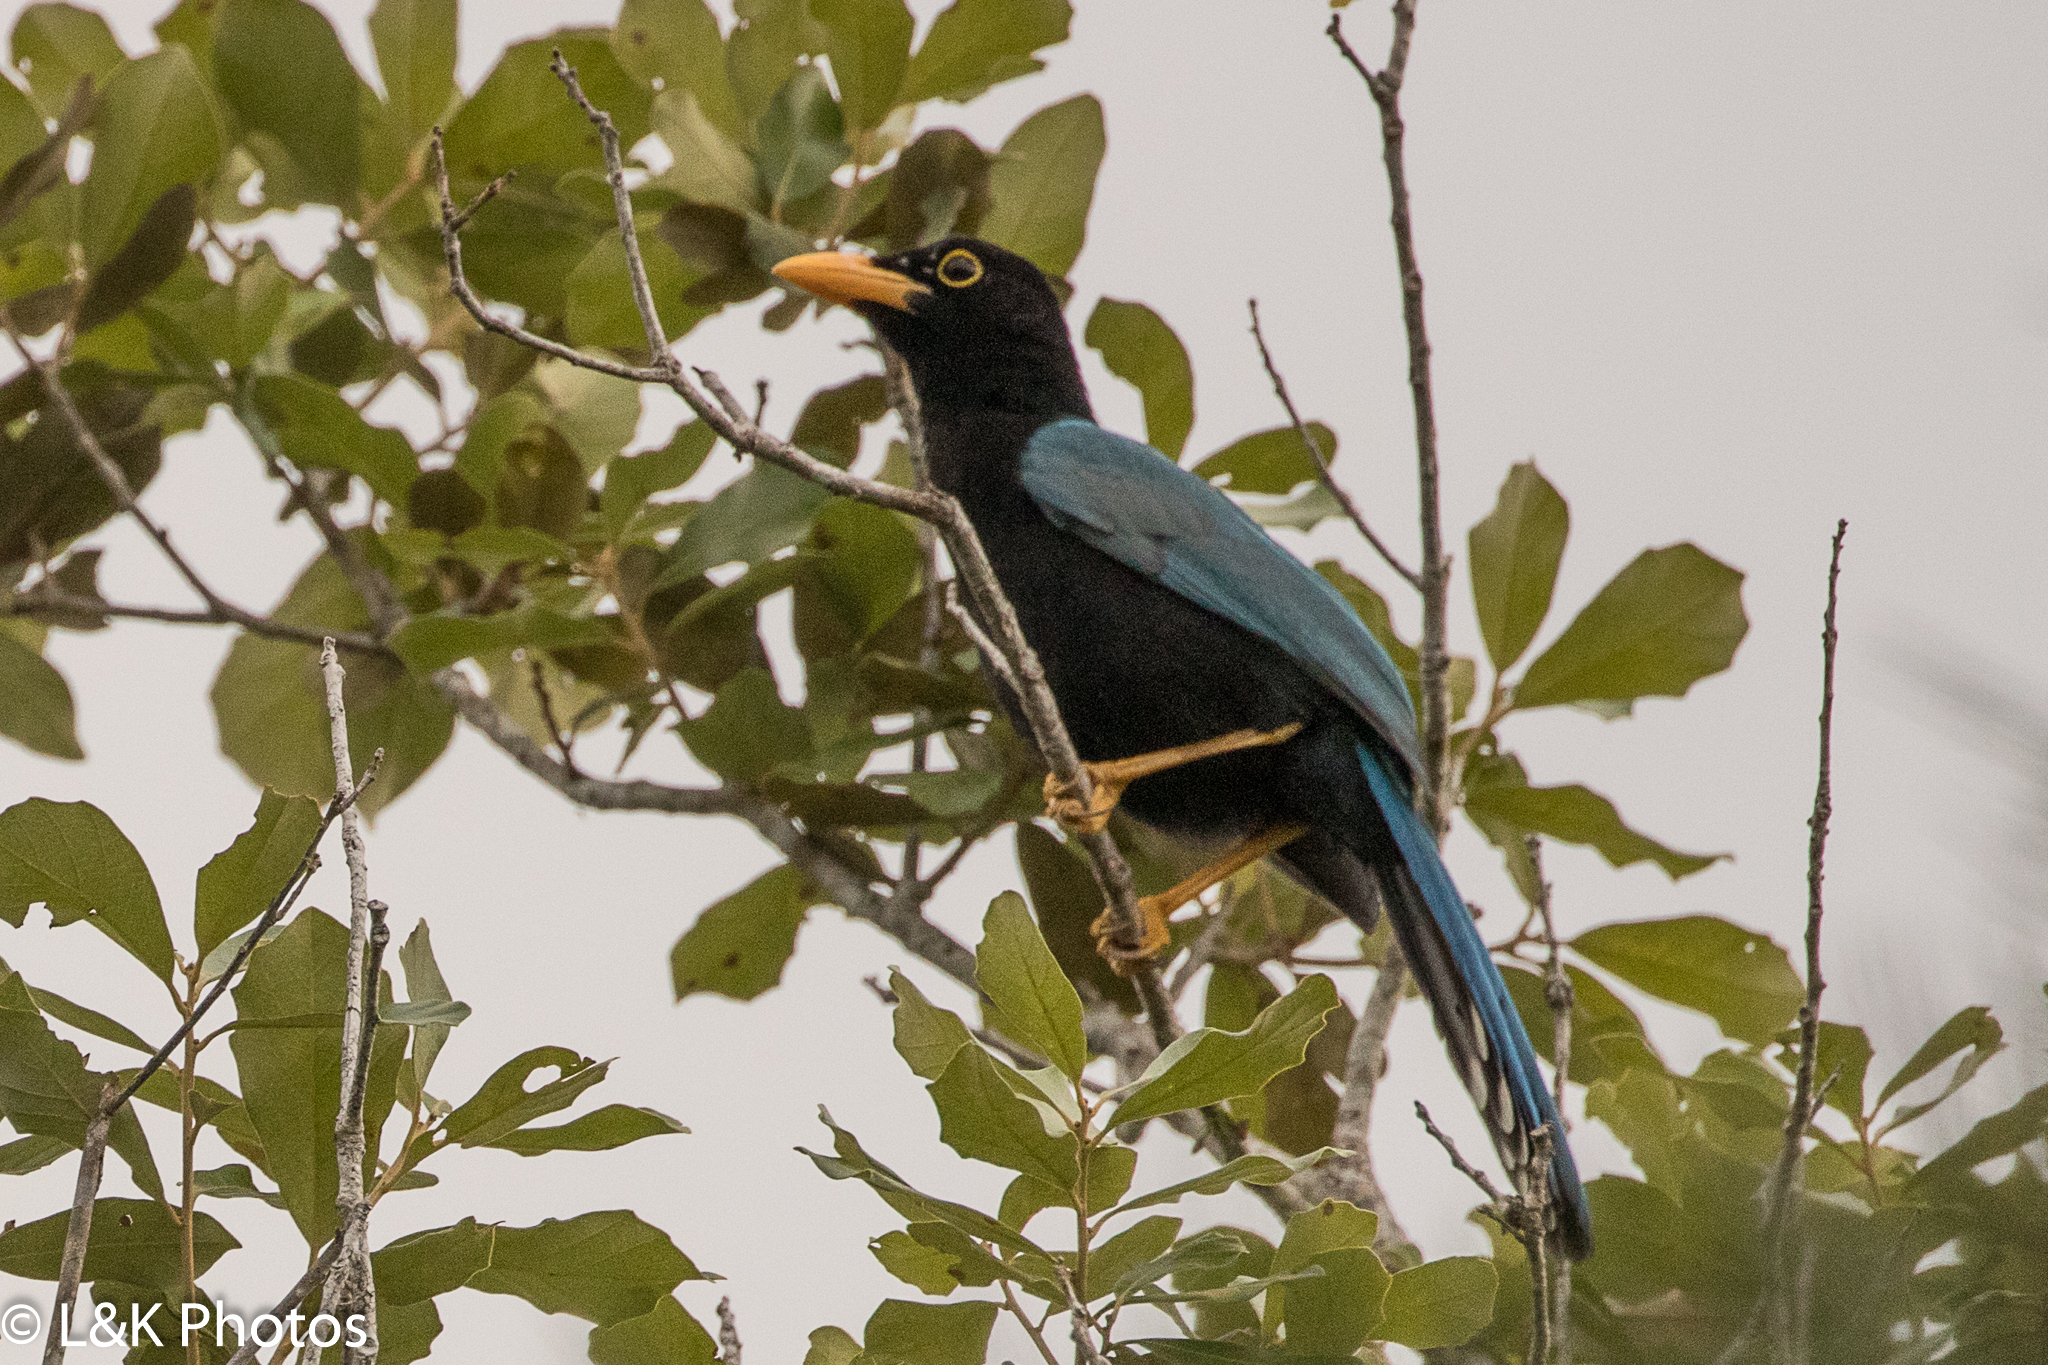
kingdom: Animalia
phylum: Chordata
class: Aves
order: Passeriformes
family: Corvidae
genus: Cyanocorax
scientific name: Cyanocorax yucatanicus
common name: Yucatan jay
